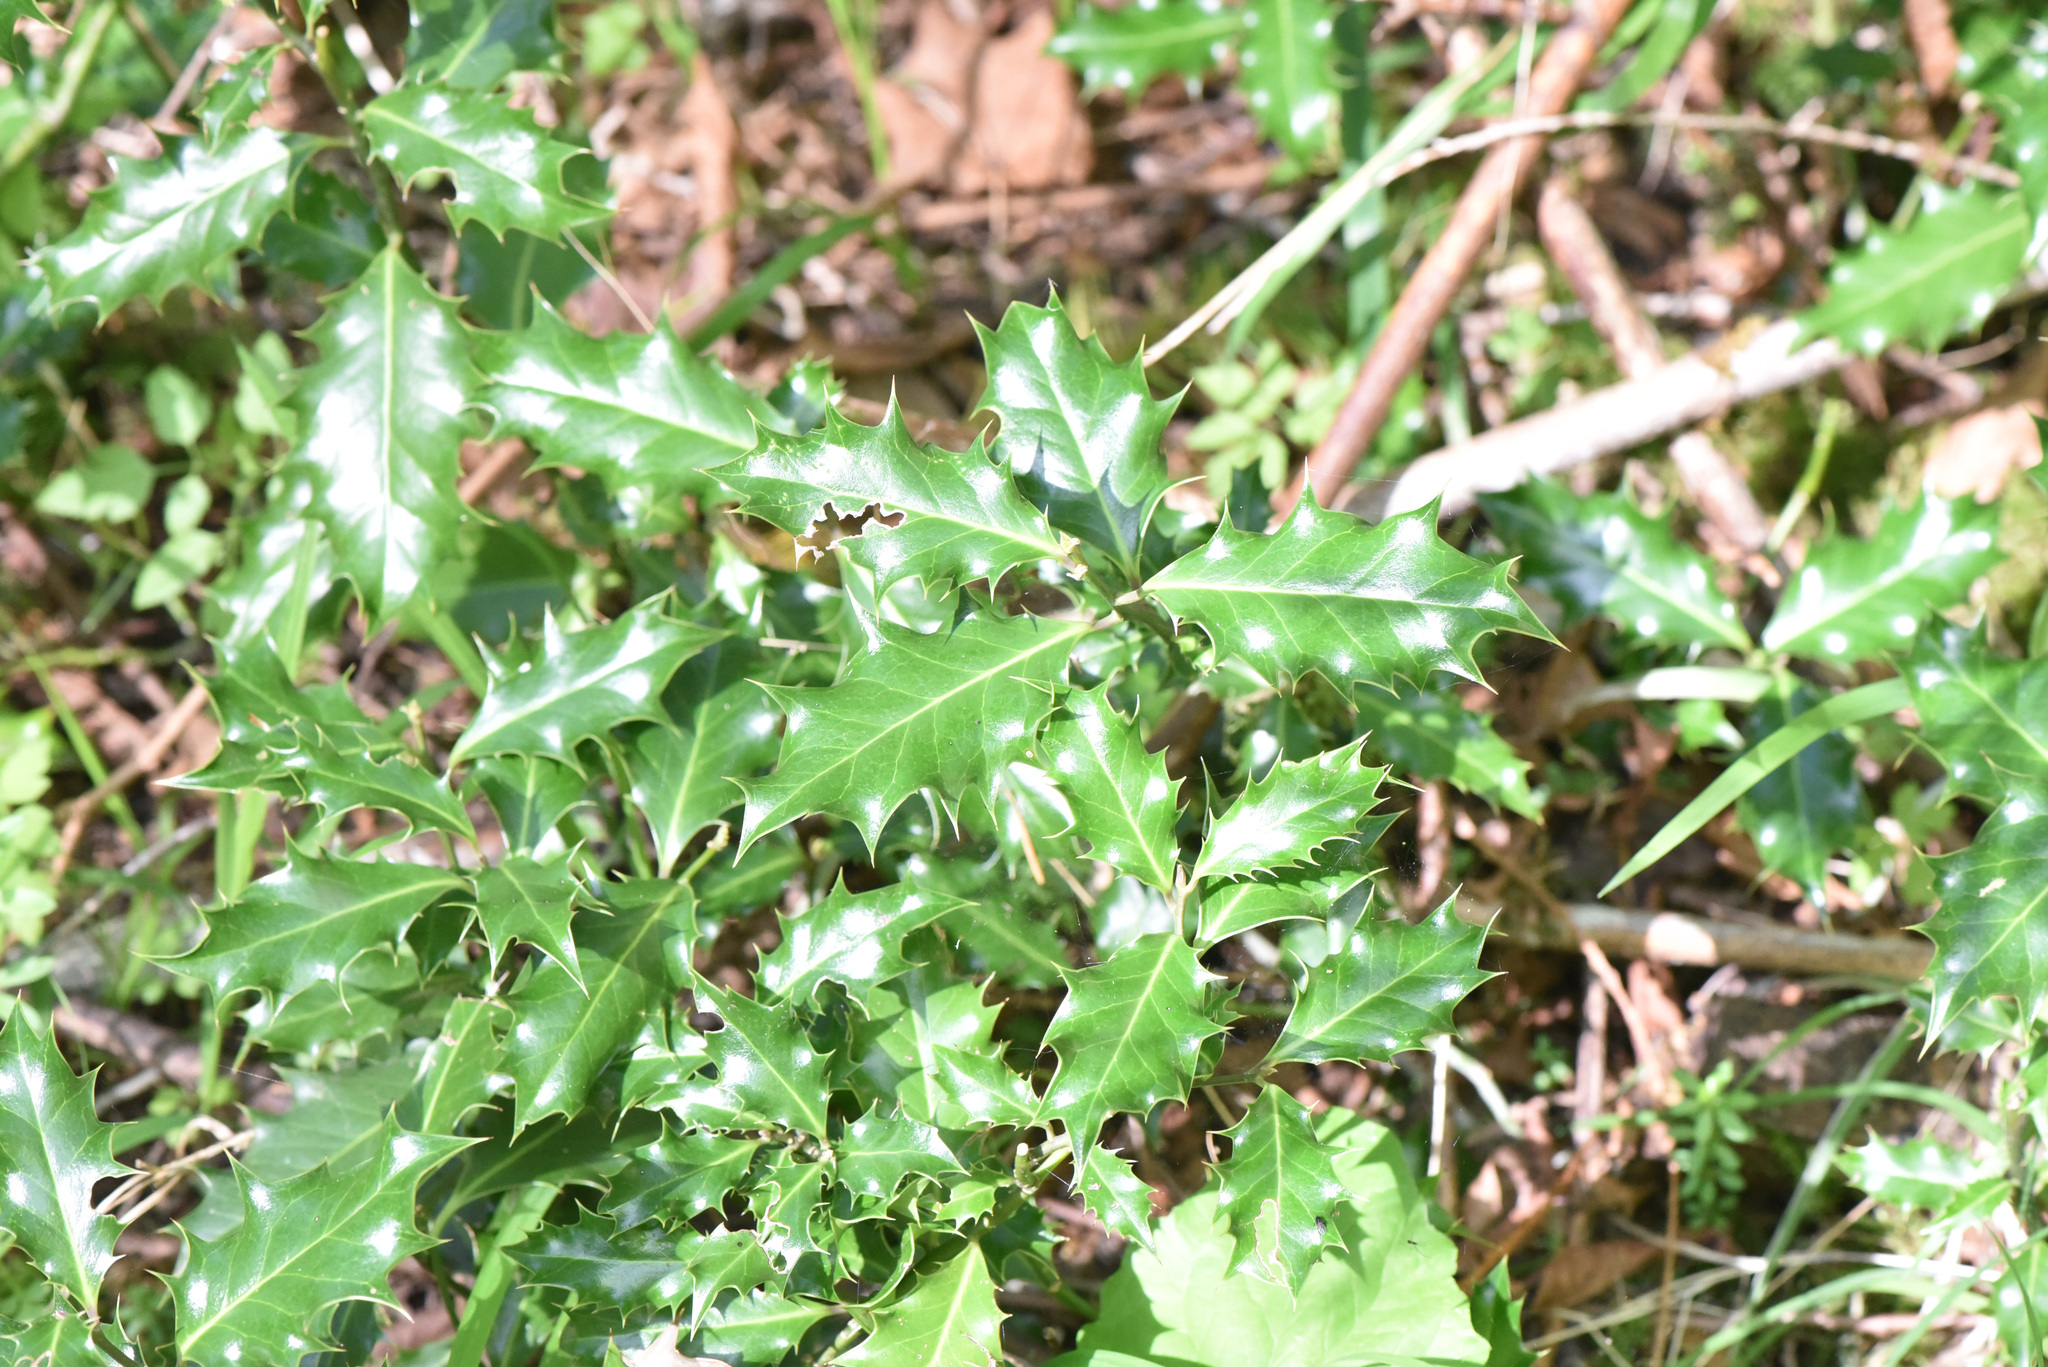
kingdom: Plantae
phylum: Tracheophyta
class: Magnoliopsida
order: Aquifoliales
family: Aquifoliaceae
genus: Ilex
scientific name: Ilex aquifolium
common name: English holly
